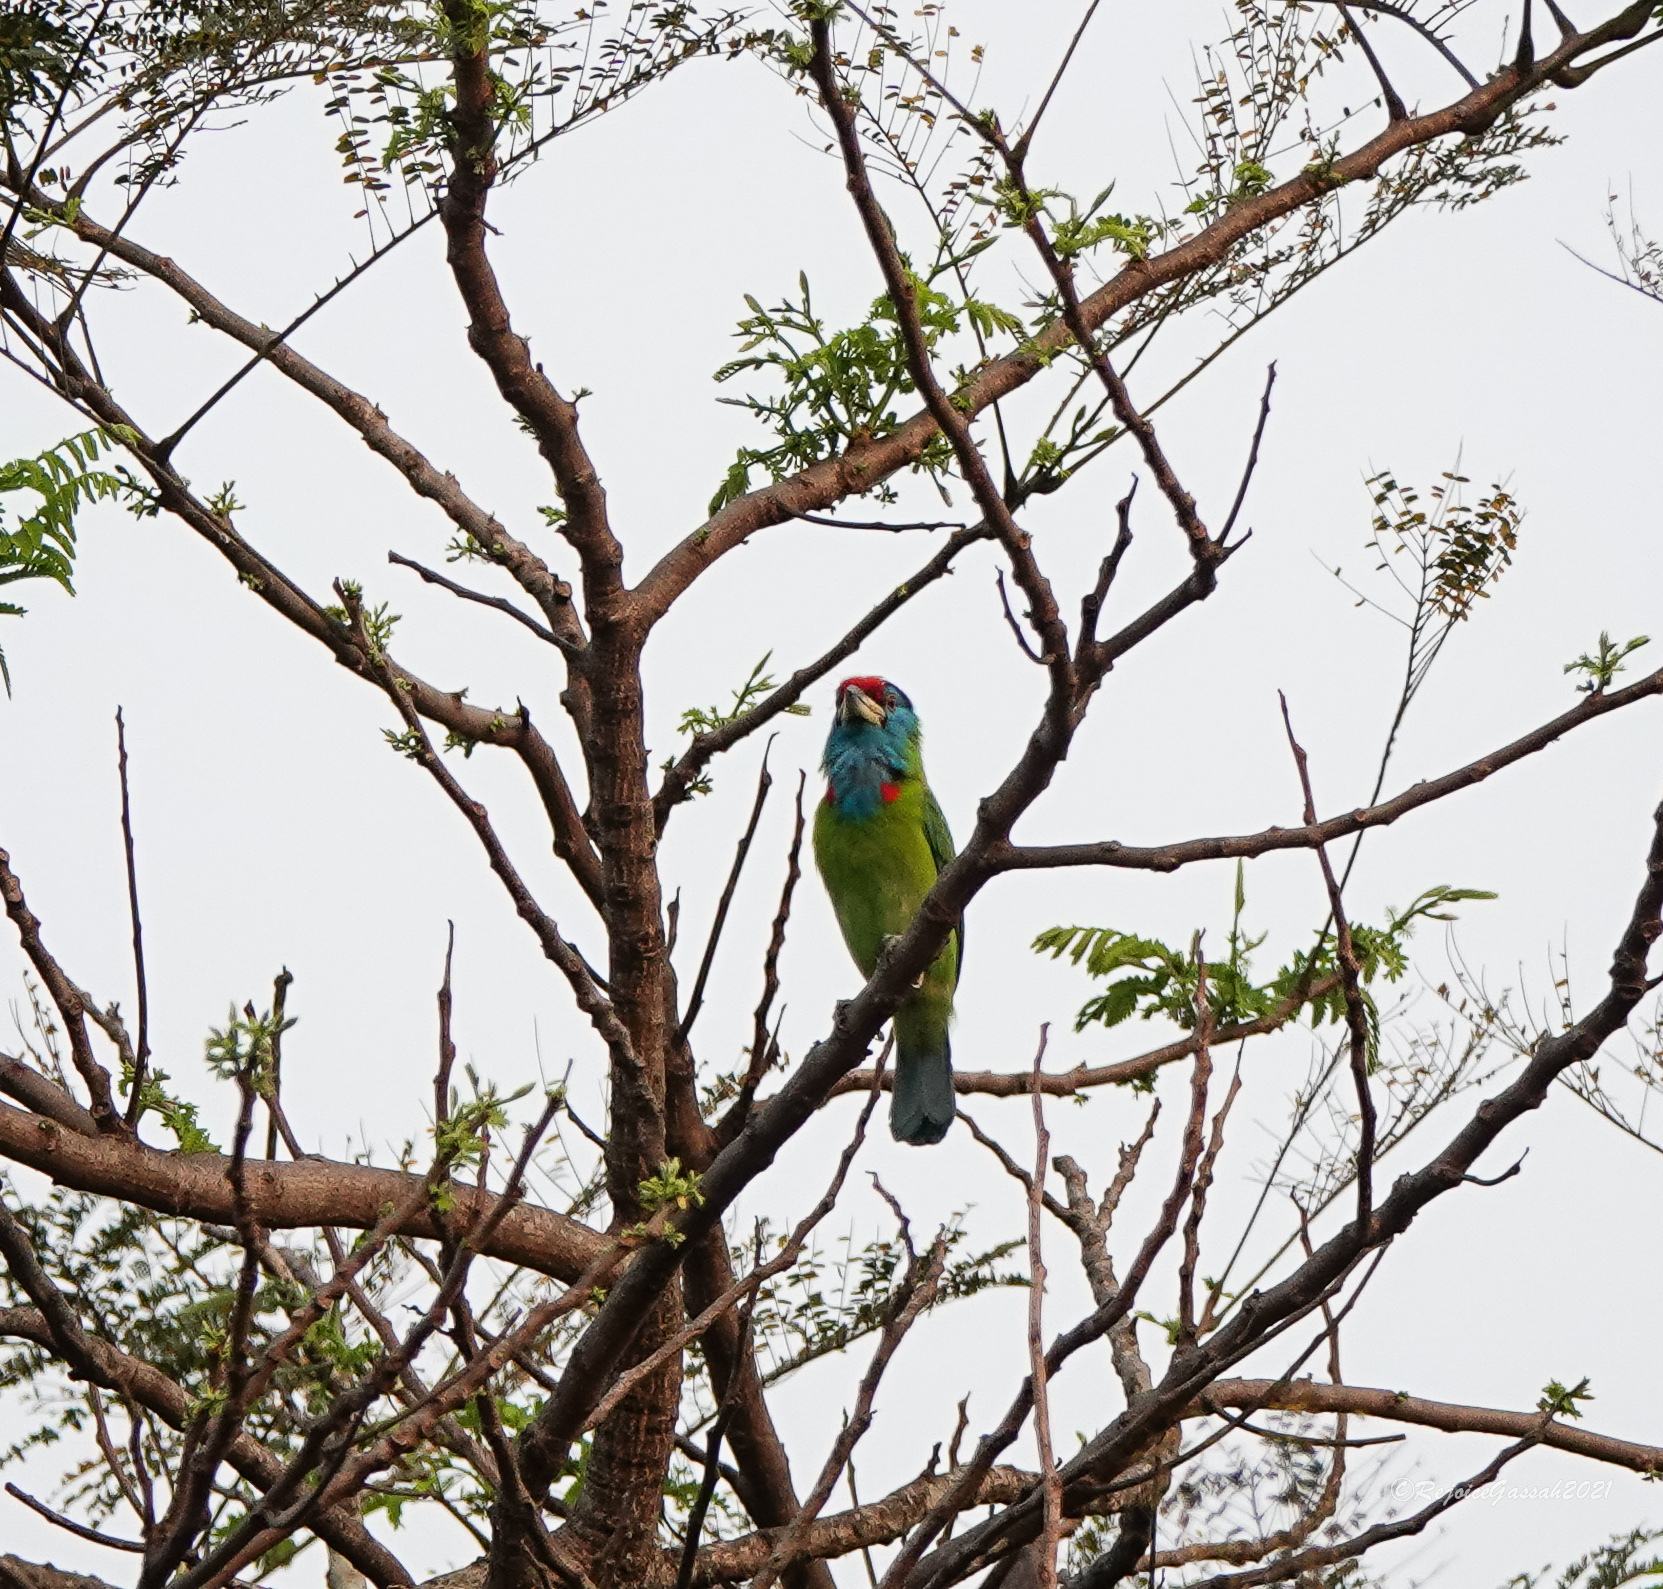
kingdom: Animalia
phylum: Chordata
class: Aves
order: Piciformes
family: Megalaimidae
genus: Psilopogon
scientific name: Psilopogon asiaticus
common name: Blue-throated barbet
